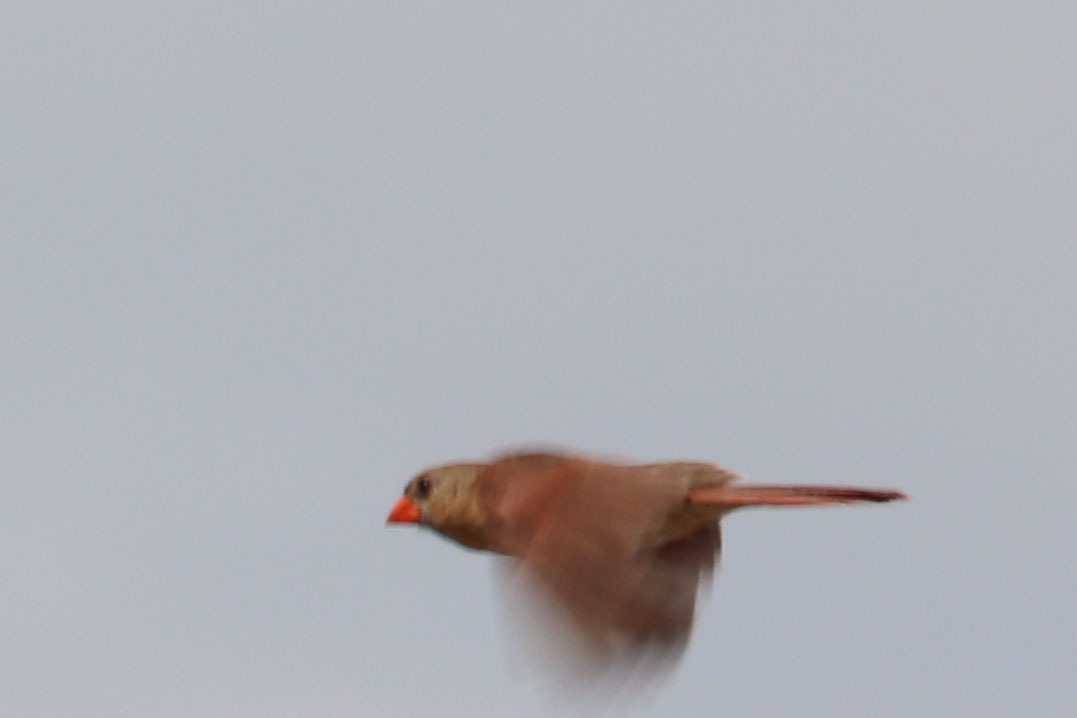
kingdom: Animalia
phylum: Chordata
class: Aves
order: Passeriformes
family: Cardinalidae
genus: Cardinalis
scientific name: Cardinalis cardinalis
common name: Northern cardinal
